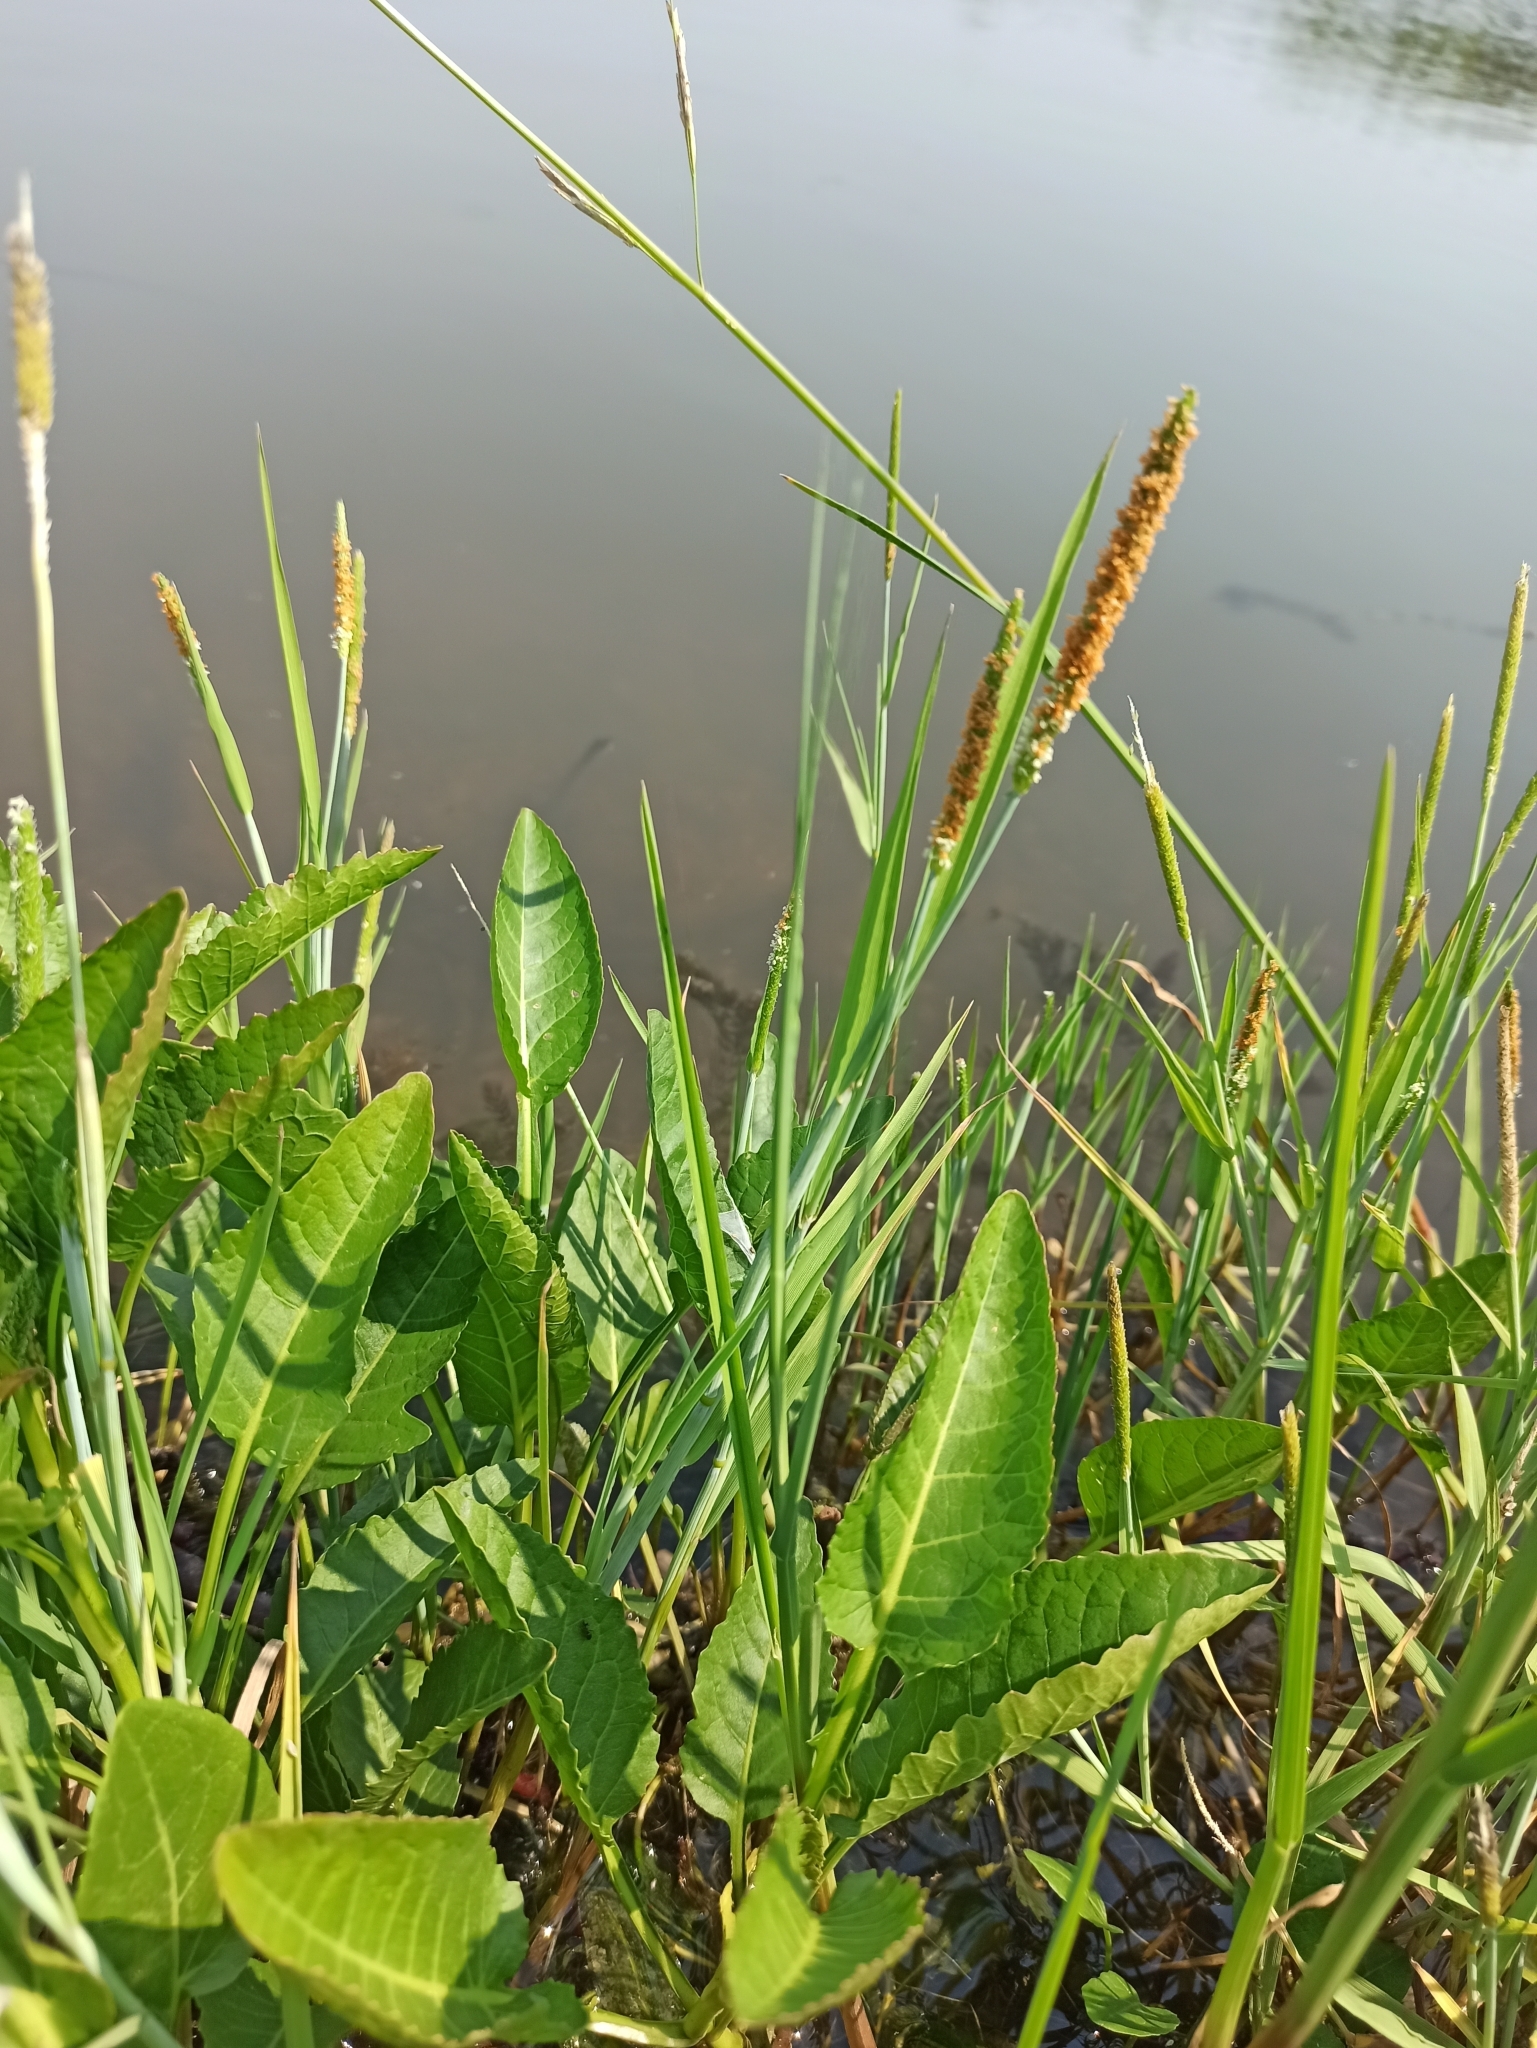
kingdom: Plantae
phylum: Tracheophyta
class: Liliopsida
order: Poales
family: Poaceae
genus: Alopecurus
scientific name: Alopecurus aequalis
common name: Orange foxtail
